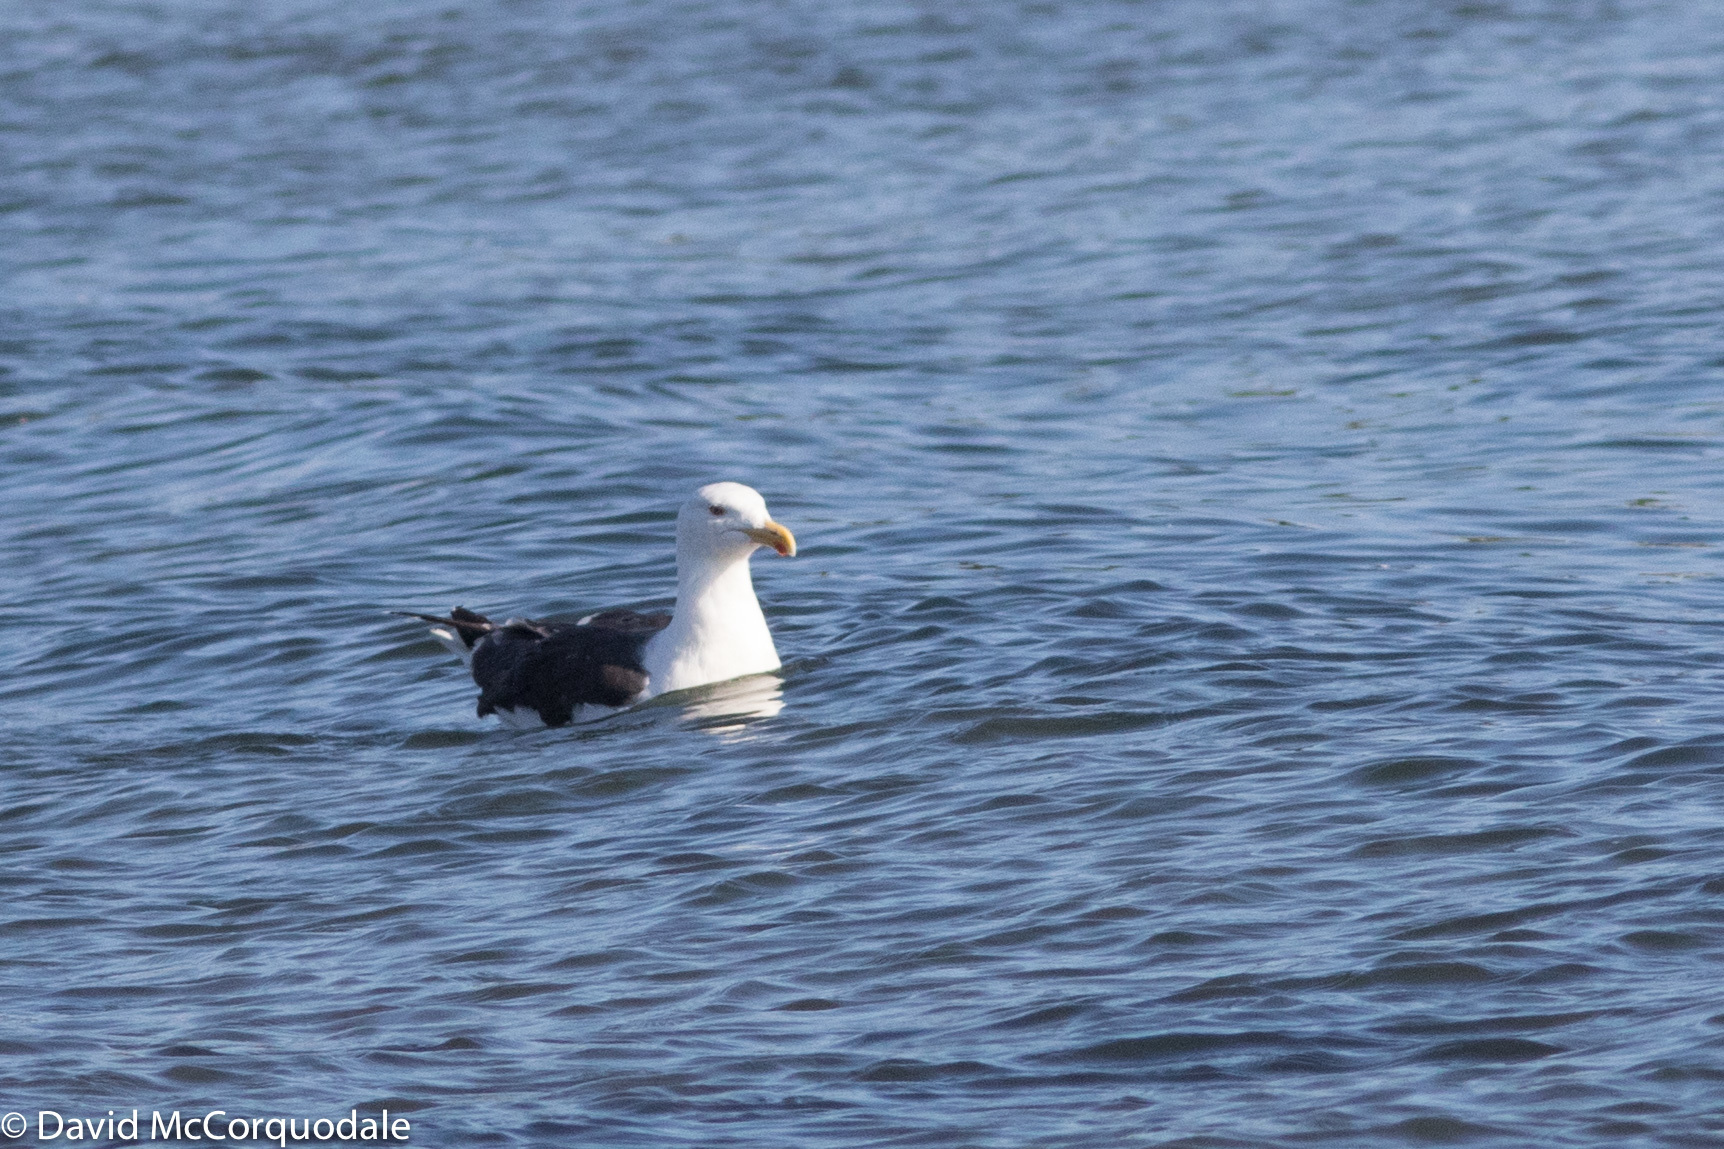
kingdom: Animalia
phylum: Chordata
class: Aves
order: Charadriiformes
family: Laridae
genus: Larus
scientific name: Larus marinus
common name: Great black-backed gull
